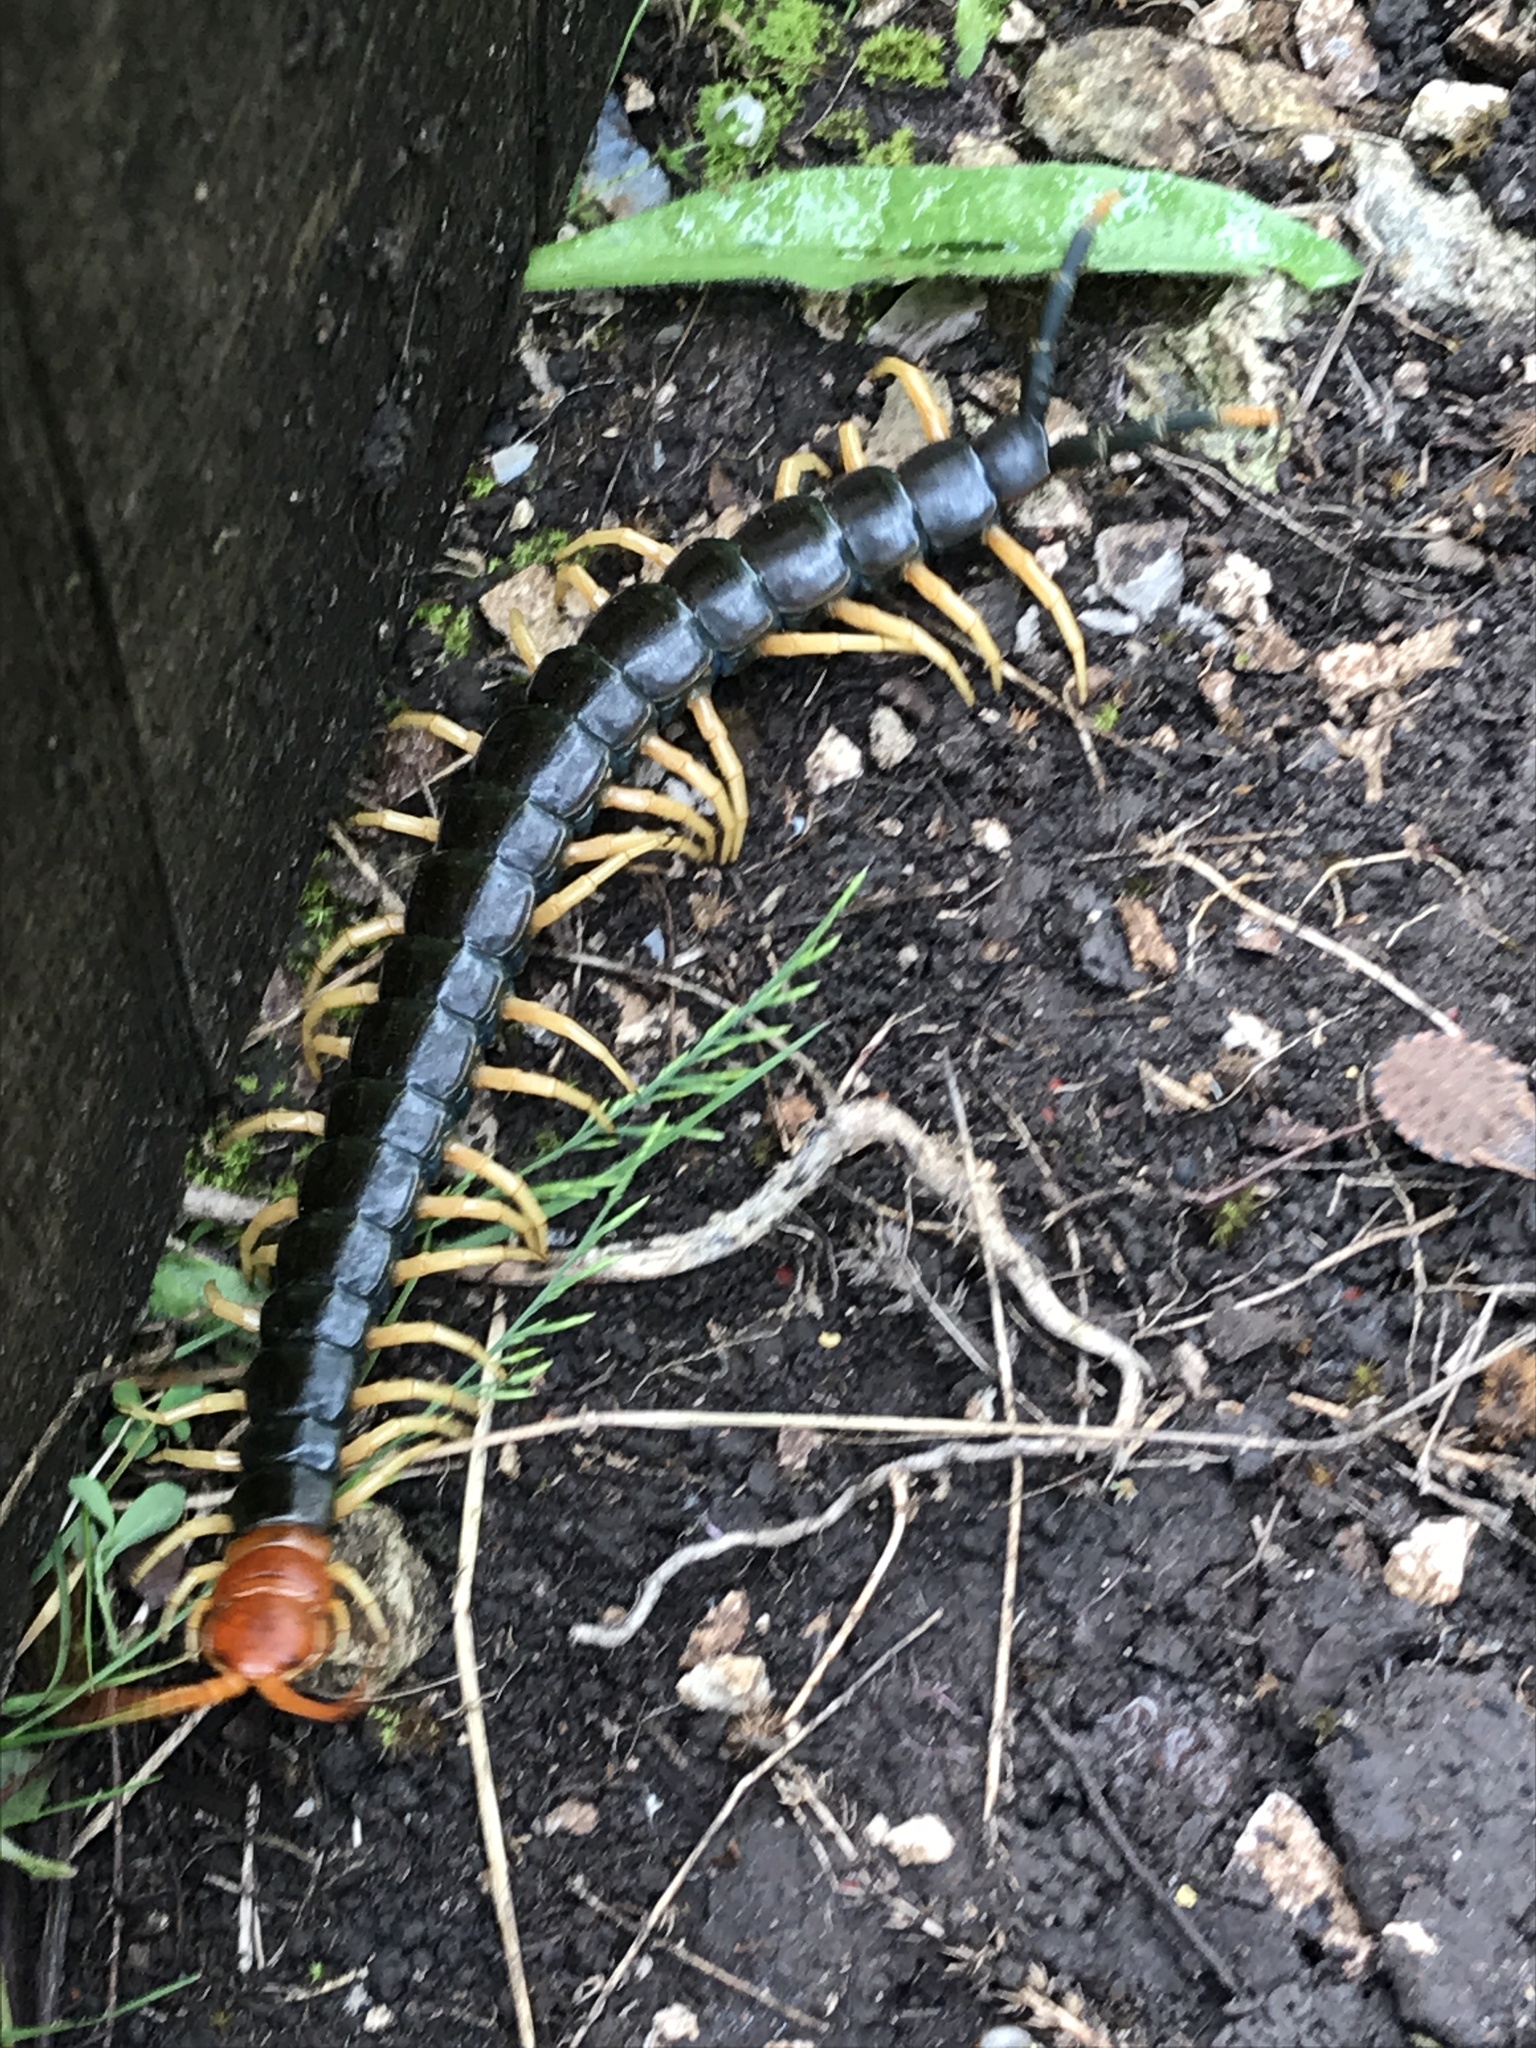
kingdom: Animalia
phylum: Arthropoda
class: Chilopoda
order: Scolopendromorpha
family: Scolopendridae
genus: Scolopendra
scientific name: Scolopendra heros
